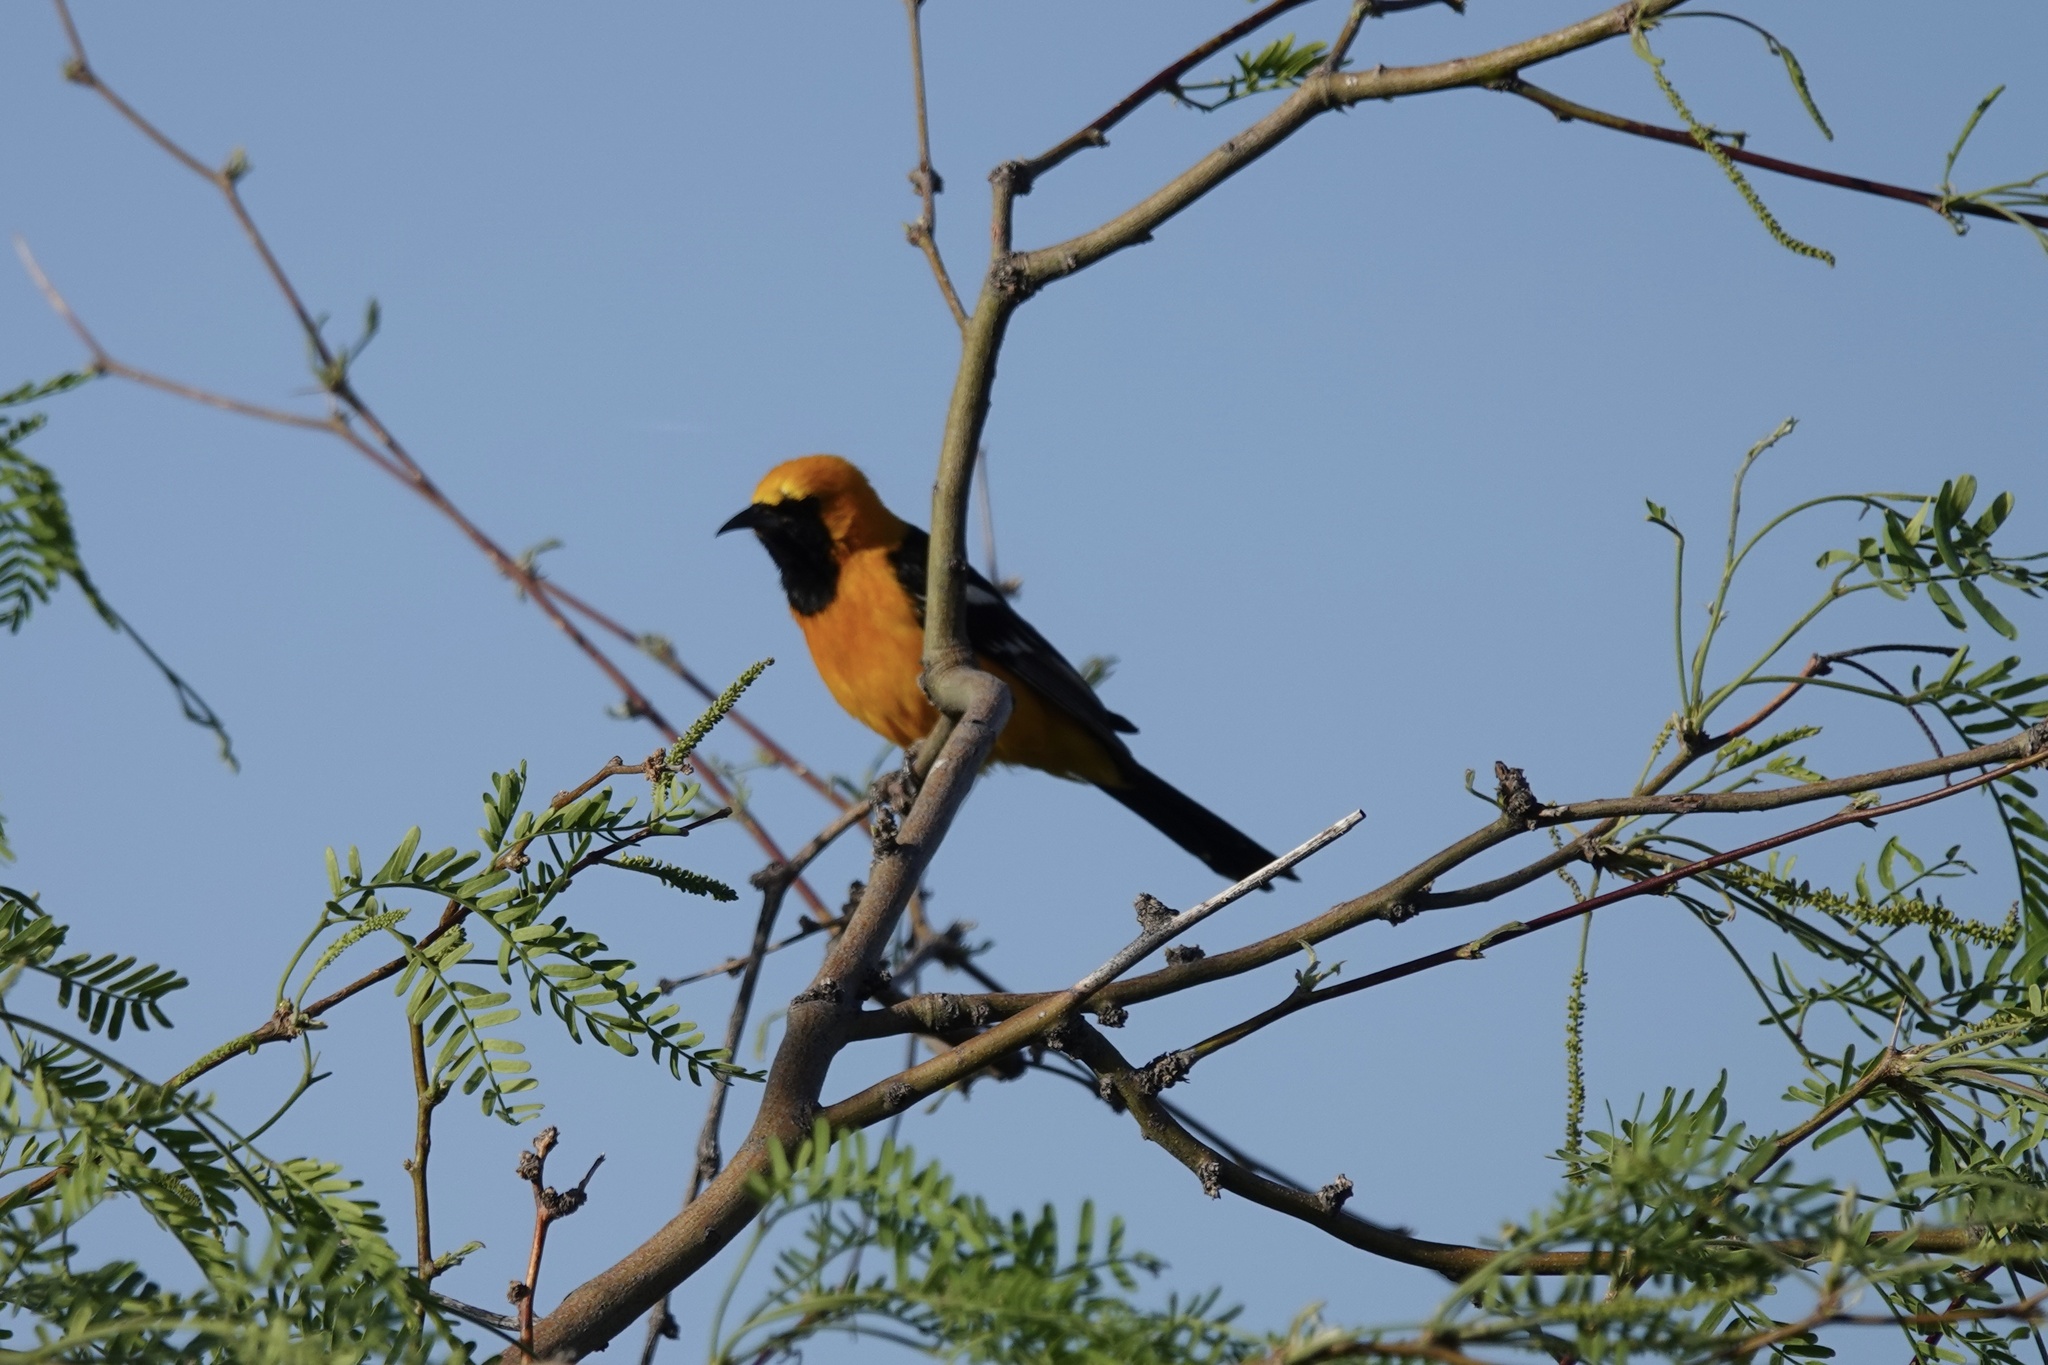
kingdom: Animalia
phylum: Chordata
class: Aves
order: Passeriformes
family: Icteridae
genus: Icterus
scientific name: Icterus cucullatus
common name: Hooded oriole
